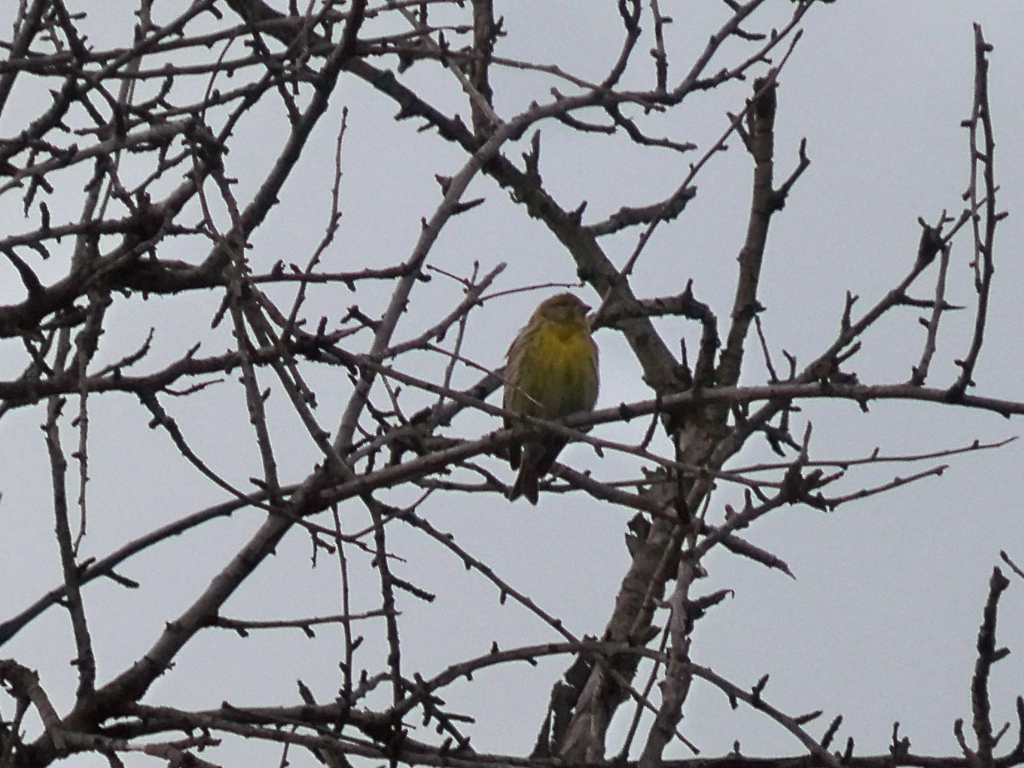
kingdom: Animalia
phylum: Chordata
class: Aves
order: Passeriformes
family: Fringillidae
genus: Serinus
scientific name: Serinus serinus
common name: European serin
